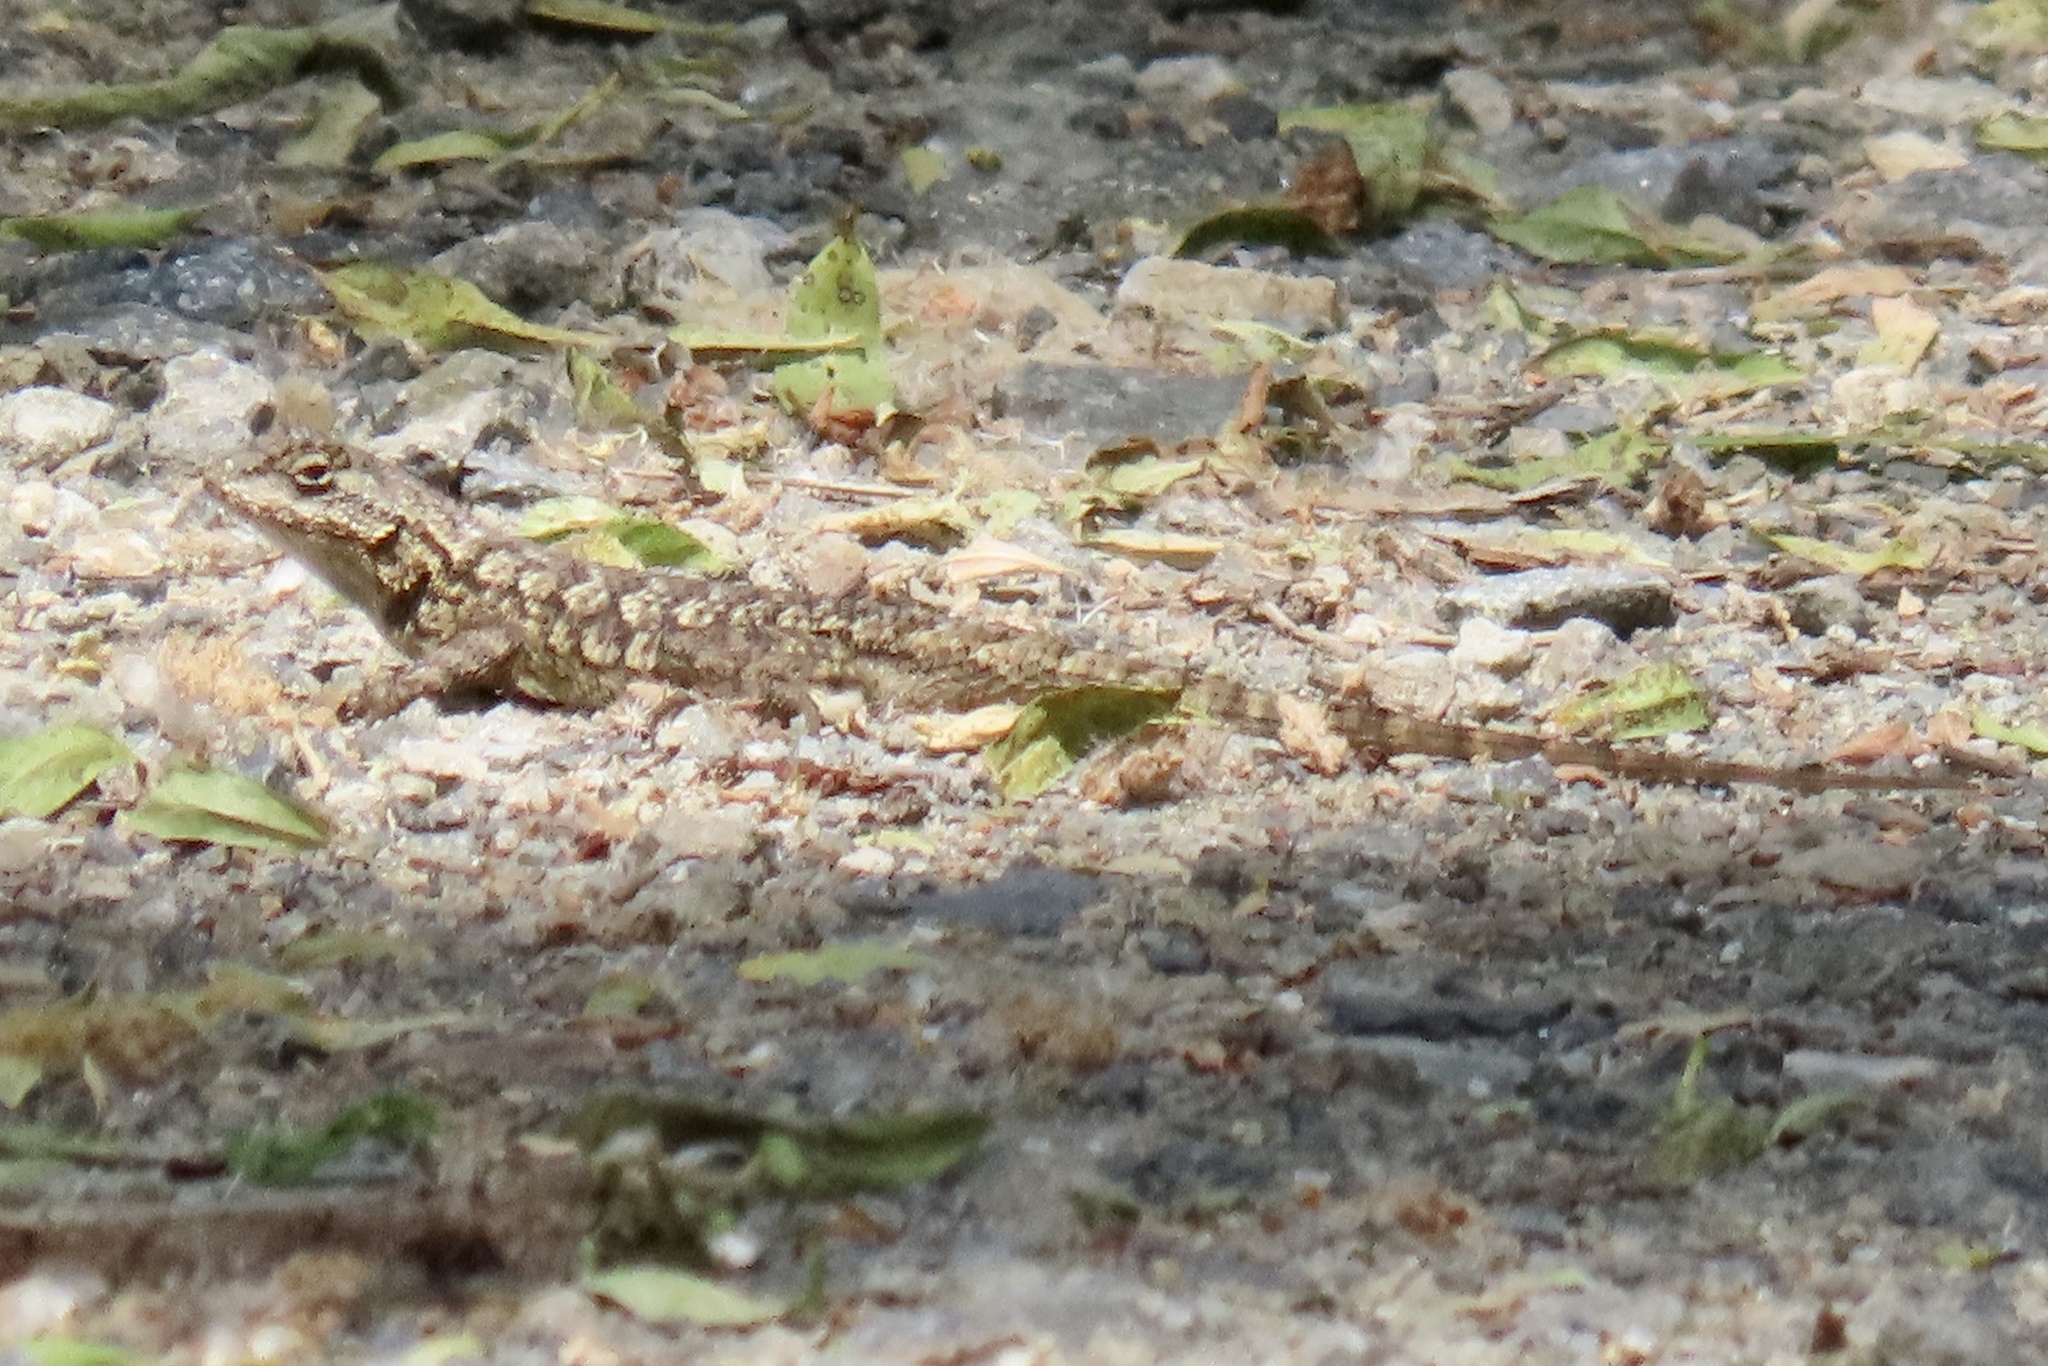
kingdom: Animalia
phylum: Chordata
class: Squamata
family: Phrynosomatidae
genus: Sceloporus
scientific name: Sceloporus occidentalis
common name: Western fence lizard
